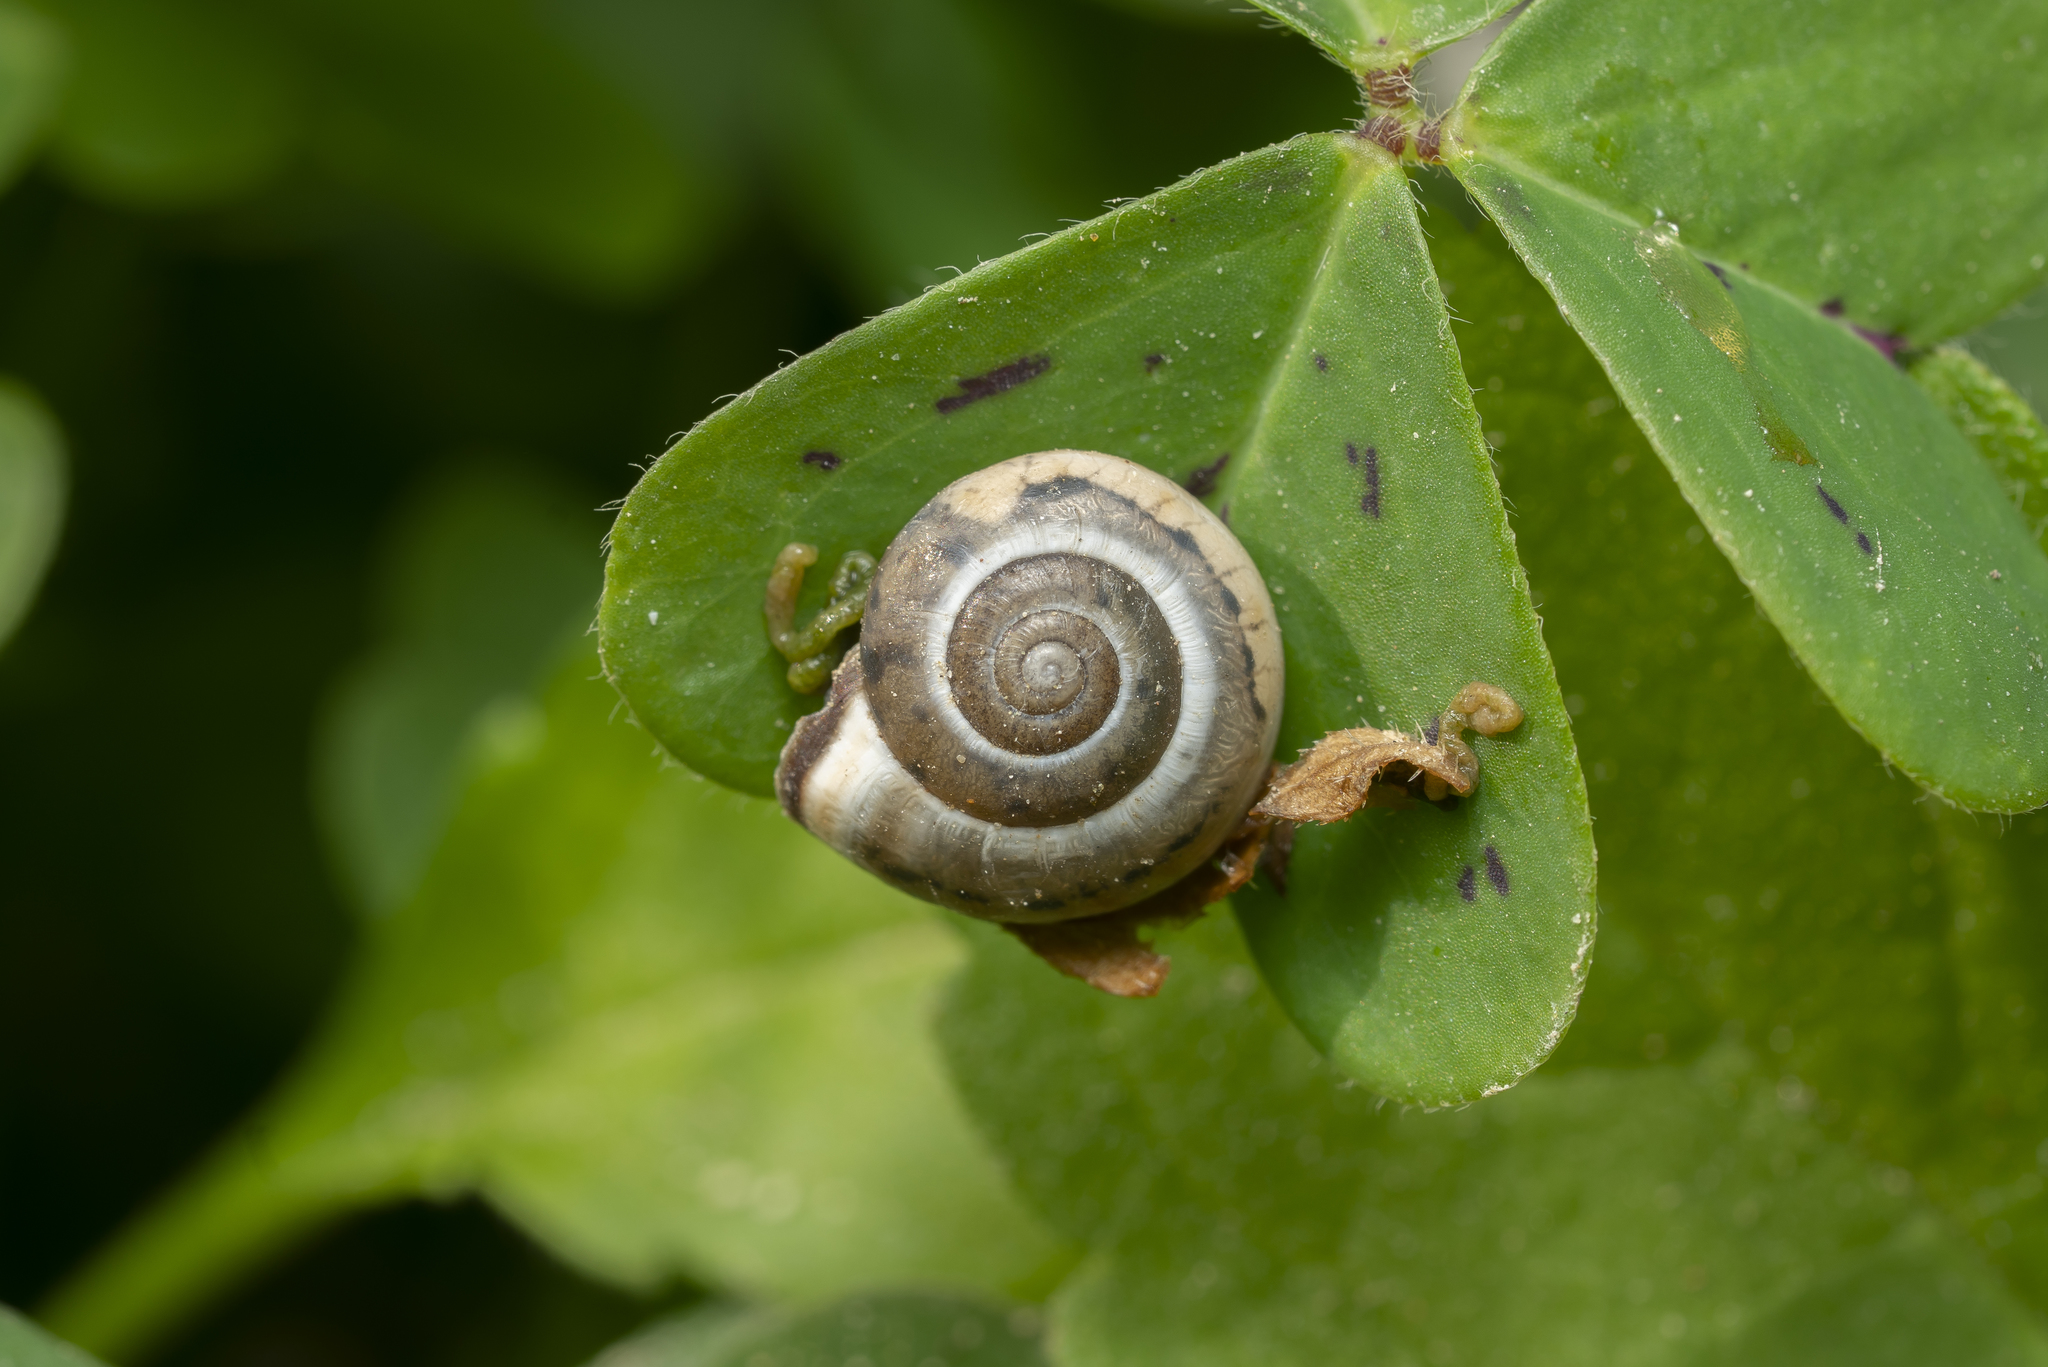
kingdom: Animalia
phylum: Mollusca
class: Gastropoda
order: Stylommatophora
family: Hygromiidae
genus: Monacha
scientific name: Monacha syriaca
